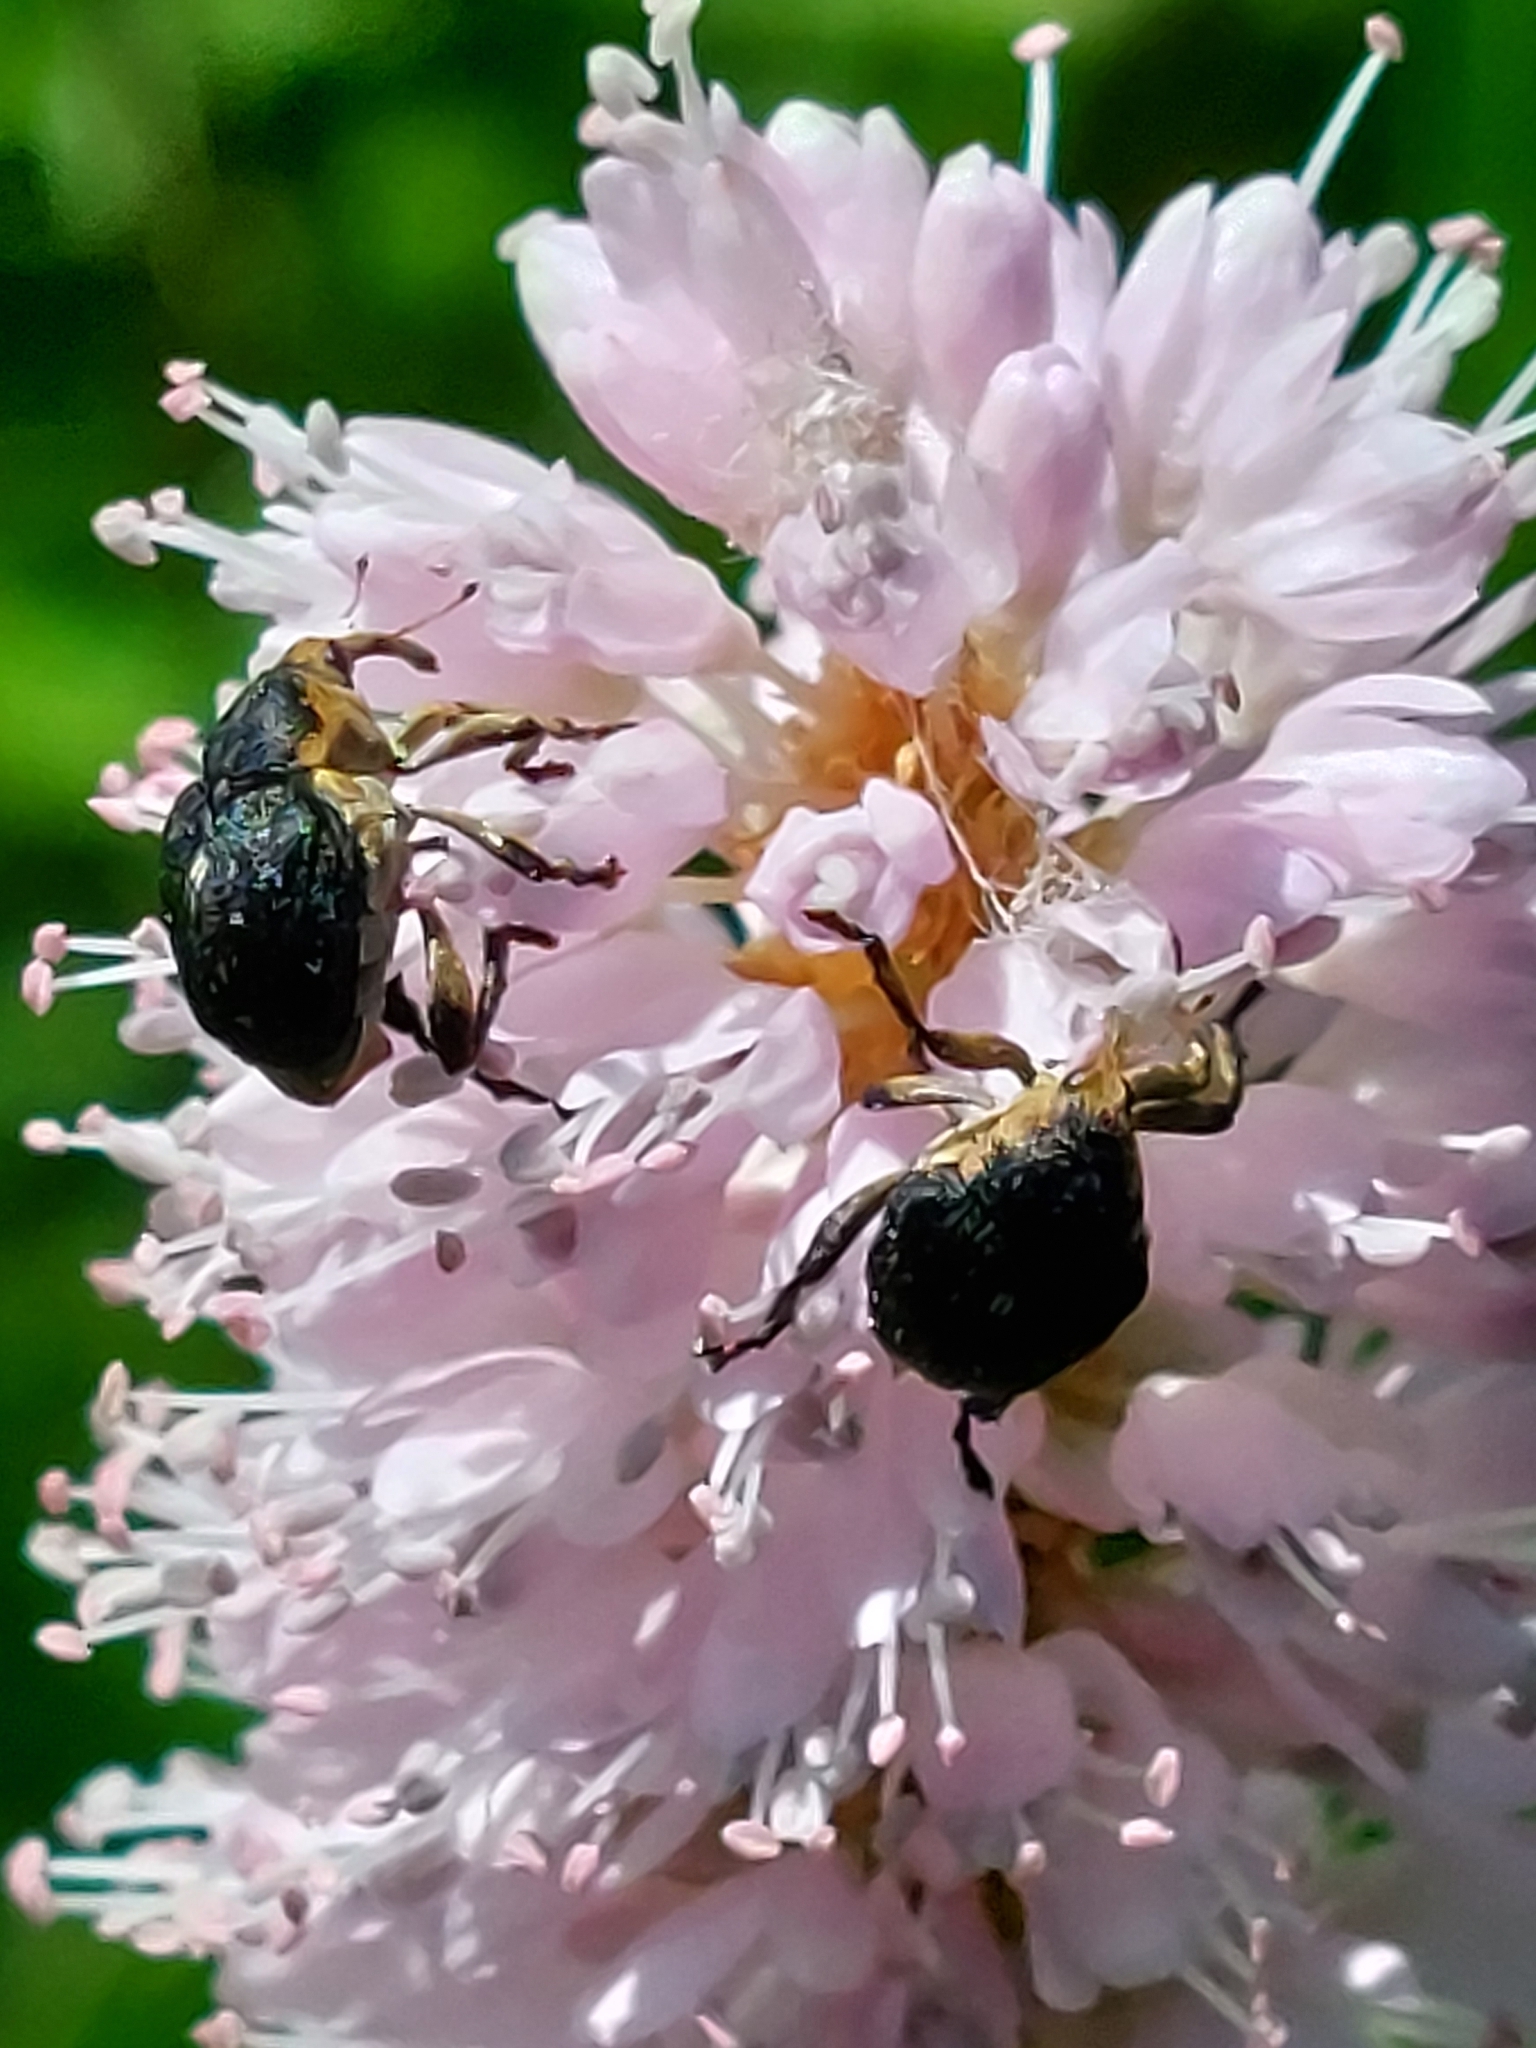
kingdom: Animalia
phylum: Arthropoda
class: Insecta
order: Coleoptera
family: Curculionidae
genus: Mononychus
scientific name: Mononychus punctumalbum
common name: Iris weevil
